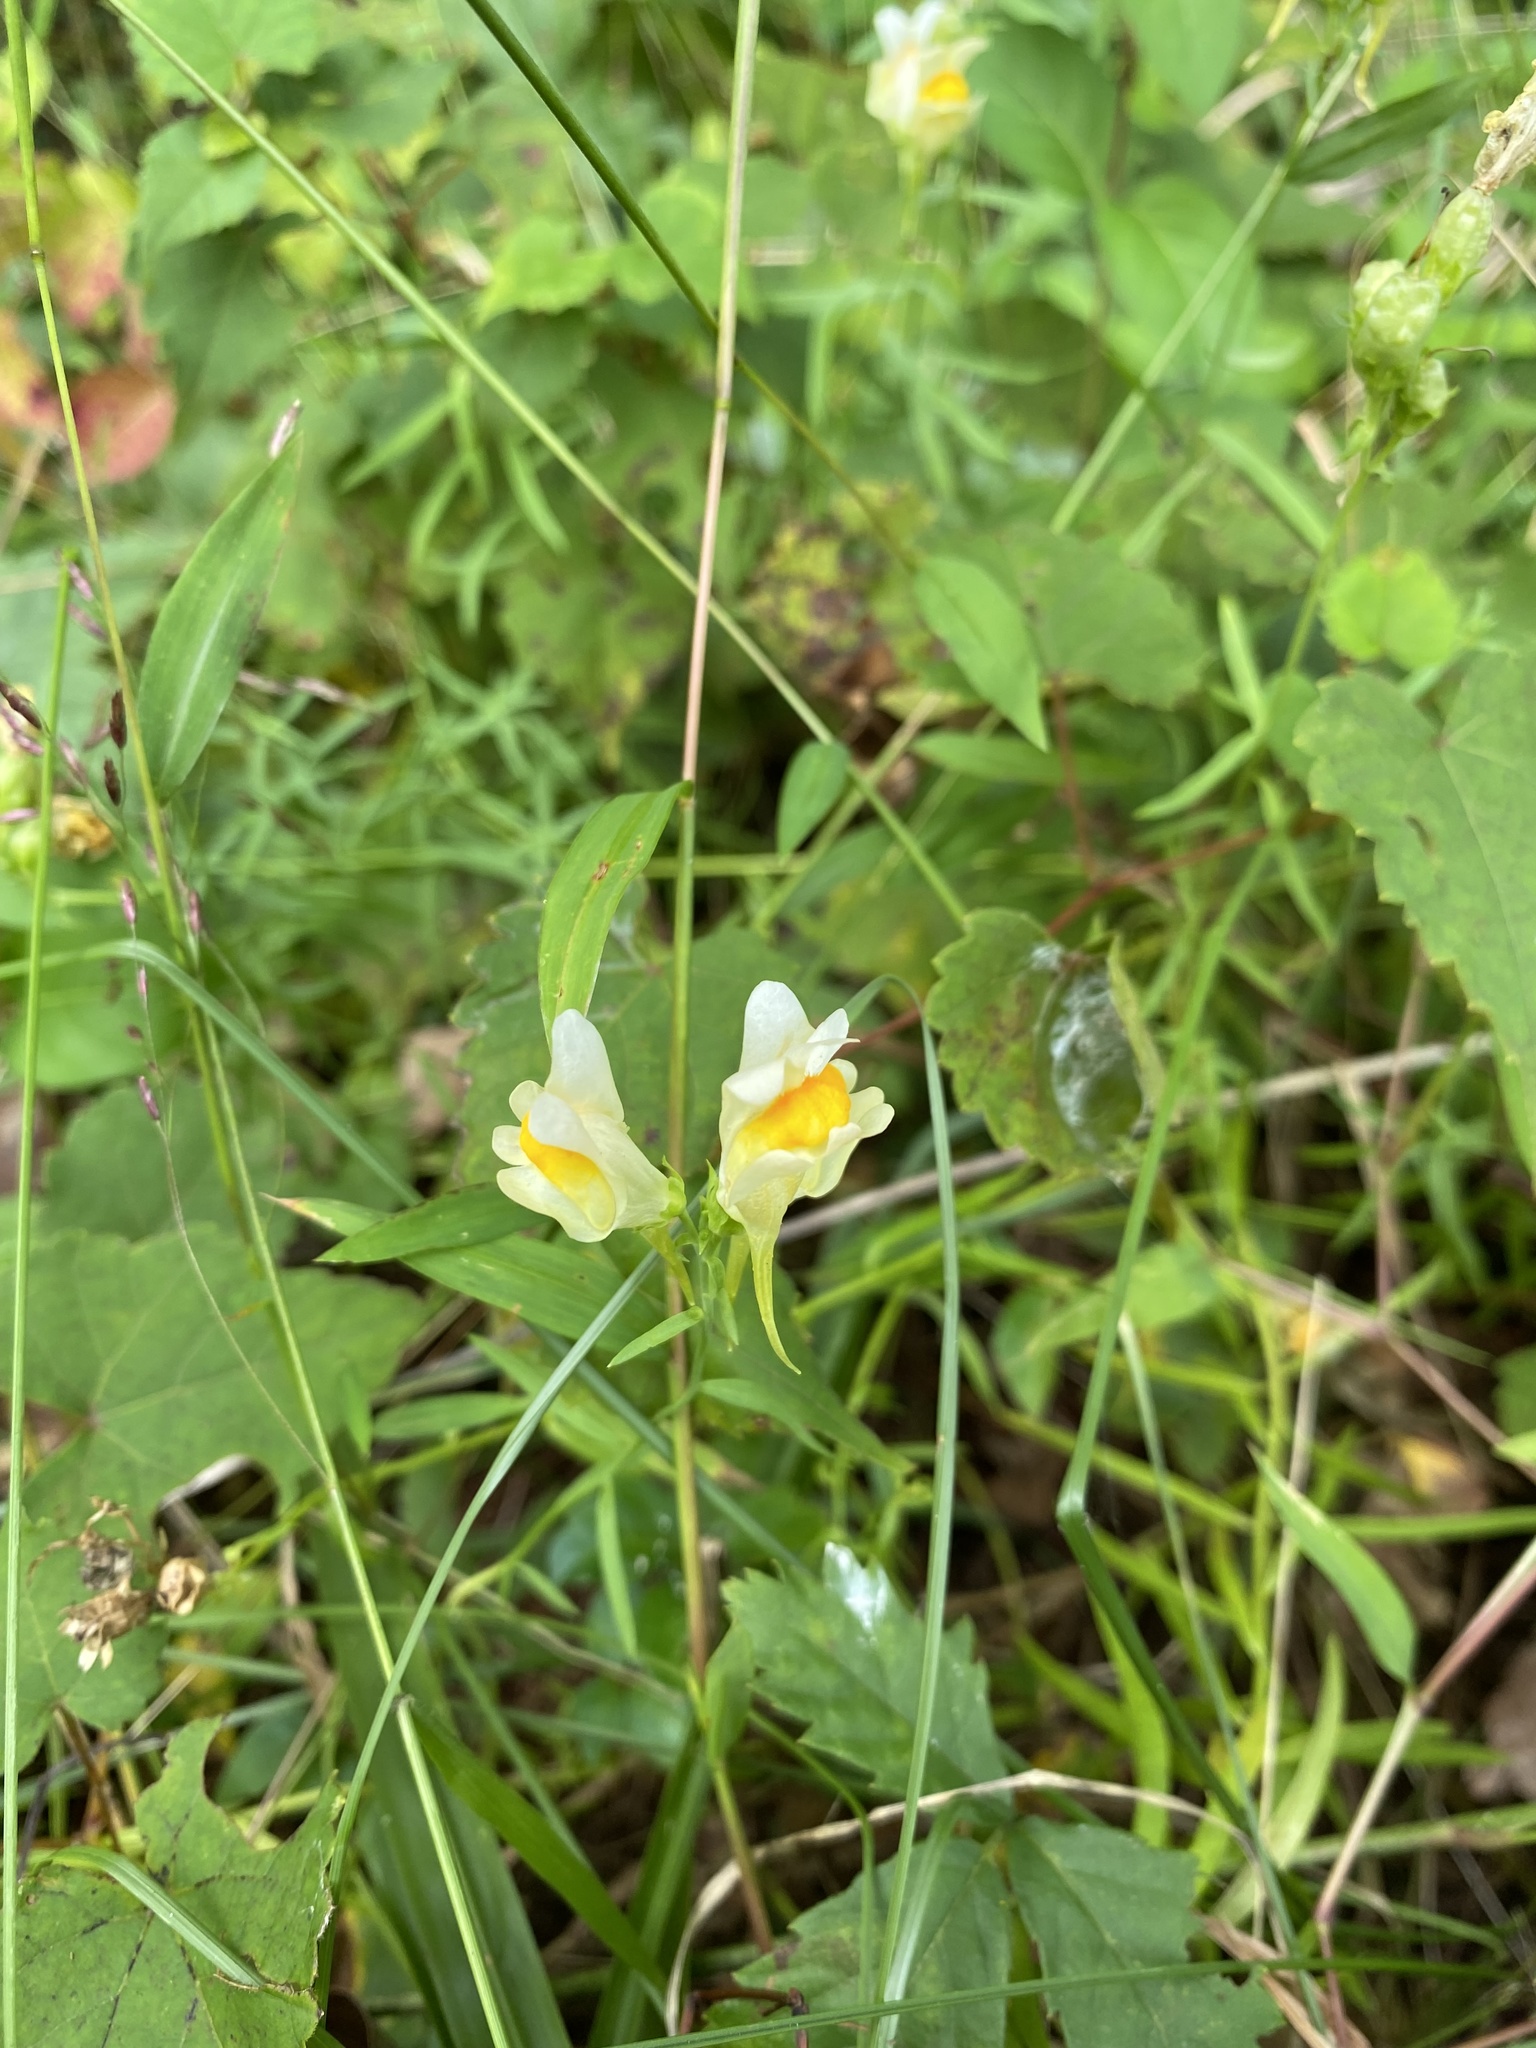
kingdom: Plantae
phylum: Tracheophyta
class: Magnoliopsida
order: Lamiales
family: Plantaginaceae
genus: Linaria
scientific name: Linaria vulgaris
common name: Butter and eggs
